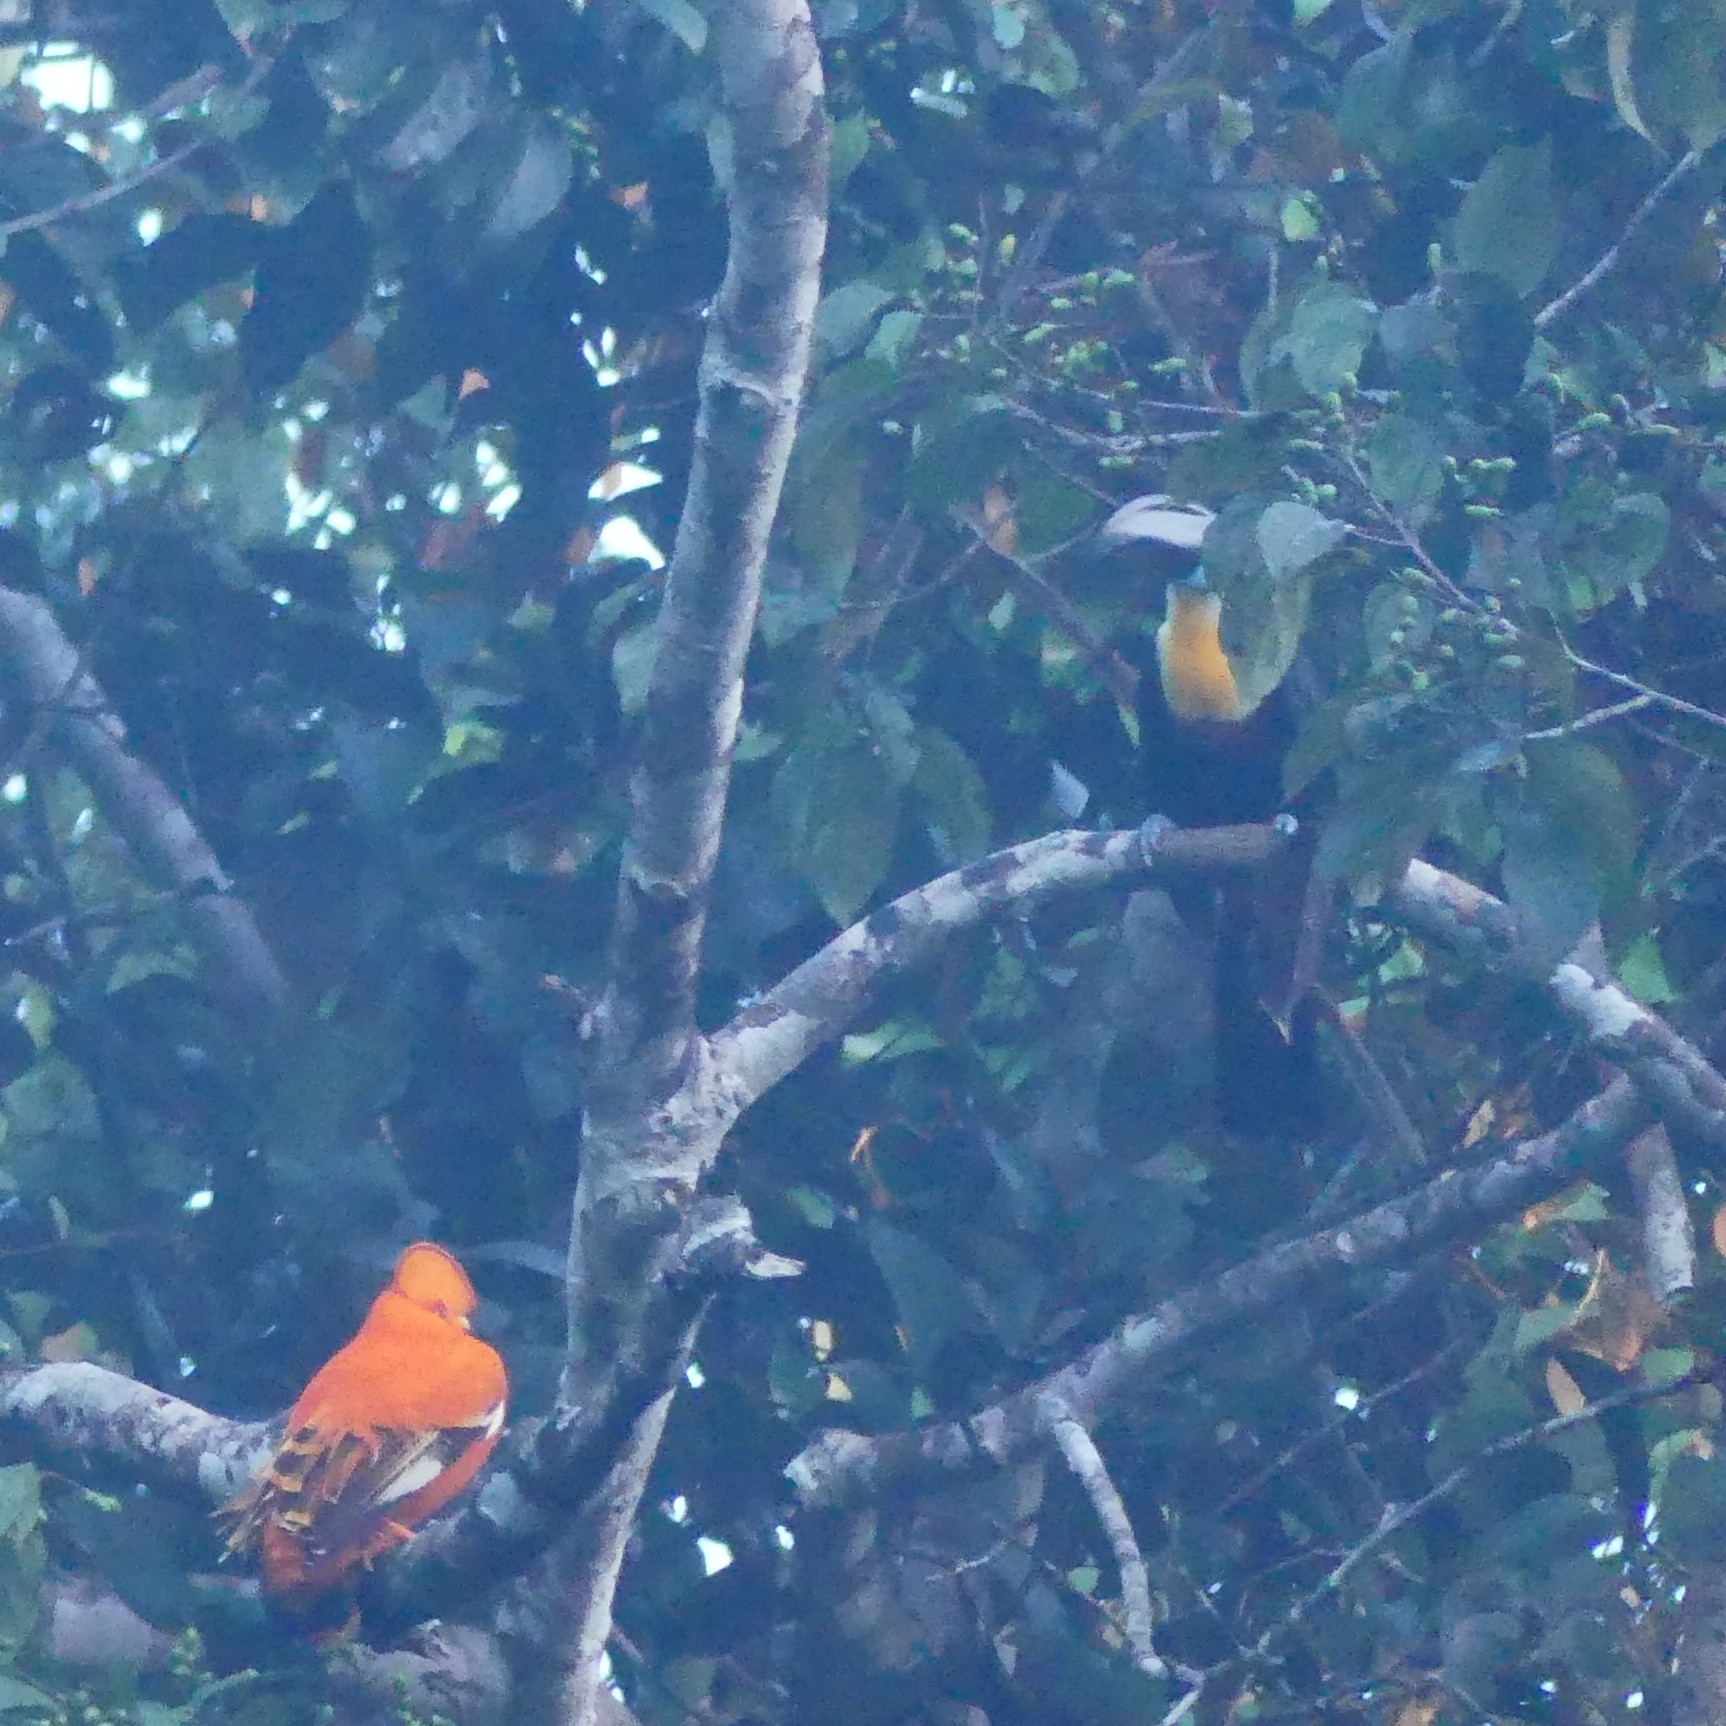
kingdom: Animalia
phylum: Chordata
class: Aves
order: Piciformes
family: Ramphastidae
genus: Ramphastos
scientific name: Ramphastos vitellinus
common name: Channel-billed toucan
